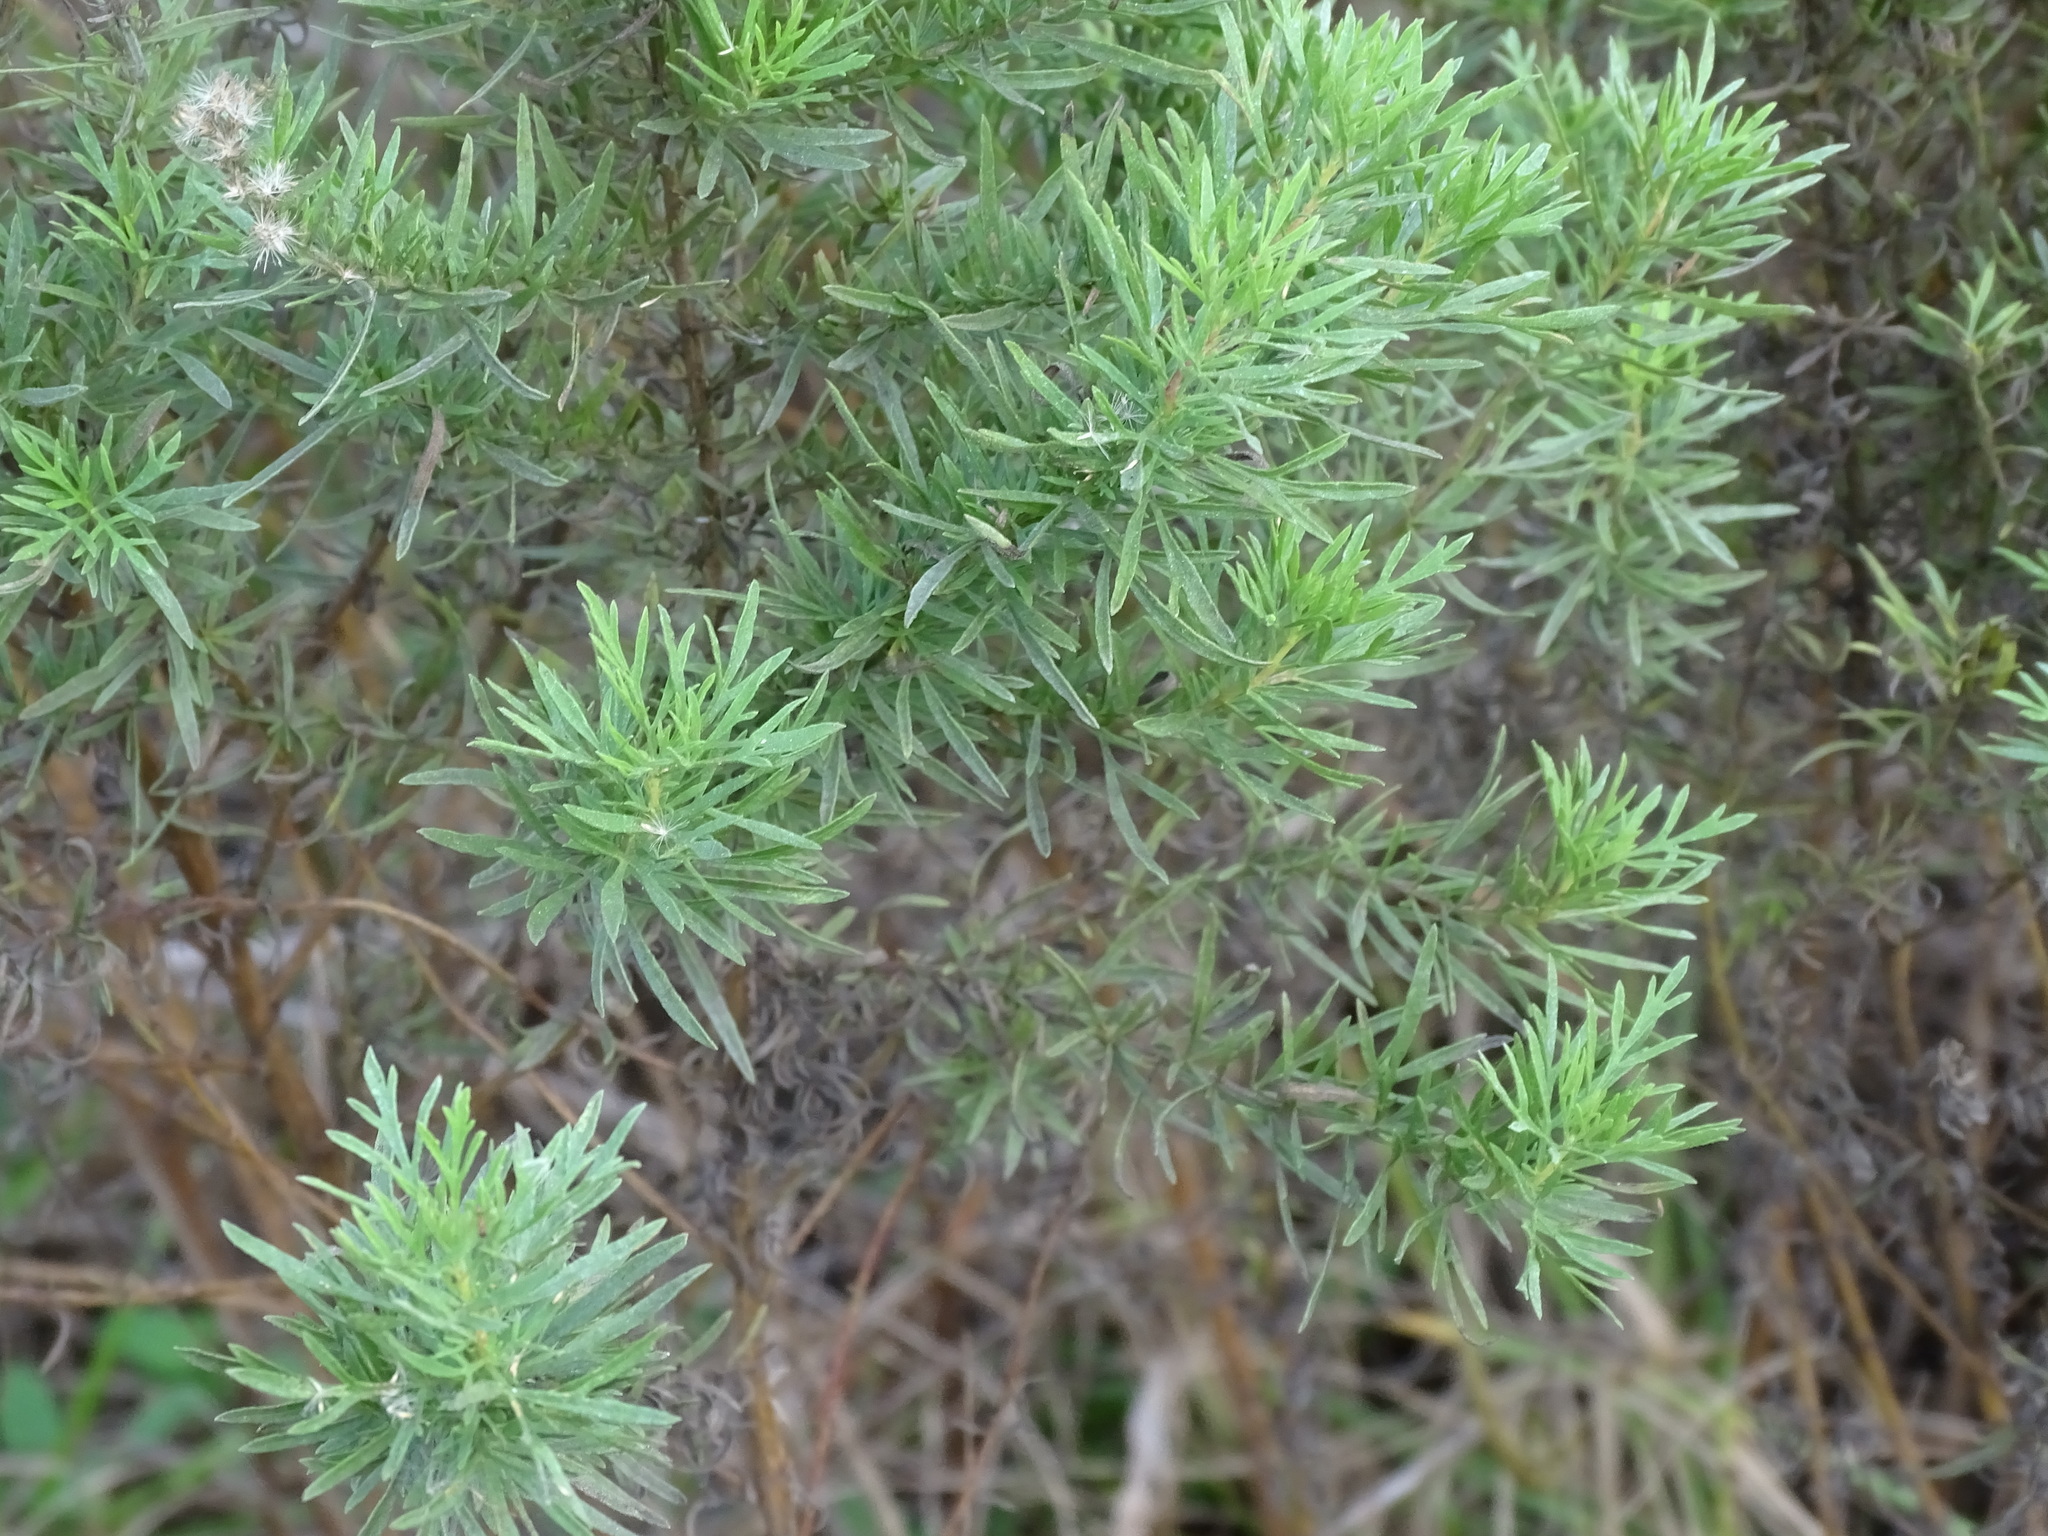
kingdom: Plantae
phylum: Tracheophyta
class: Magnoliopsida
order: Asterales
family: Asteraceae
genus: Eupatorium
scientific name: Eupatorium compositifolium
